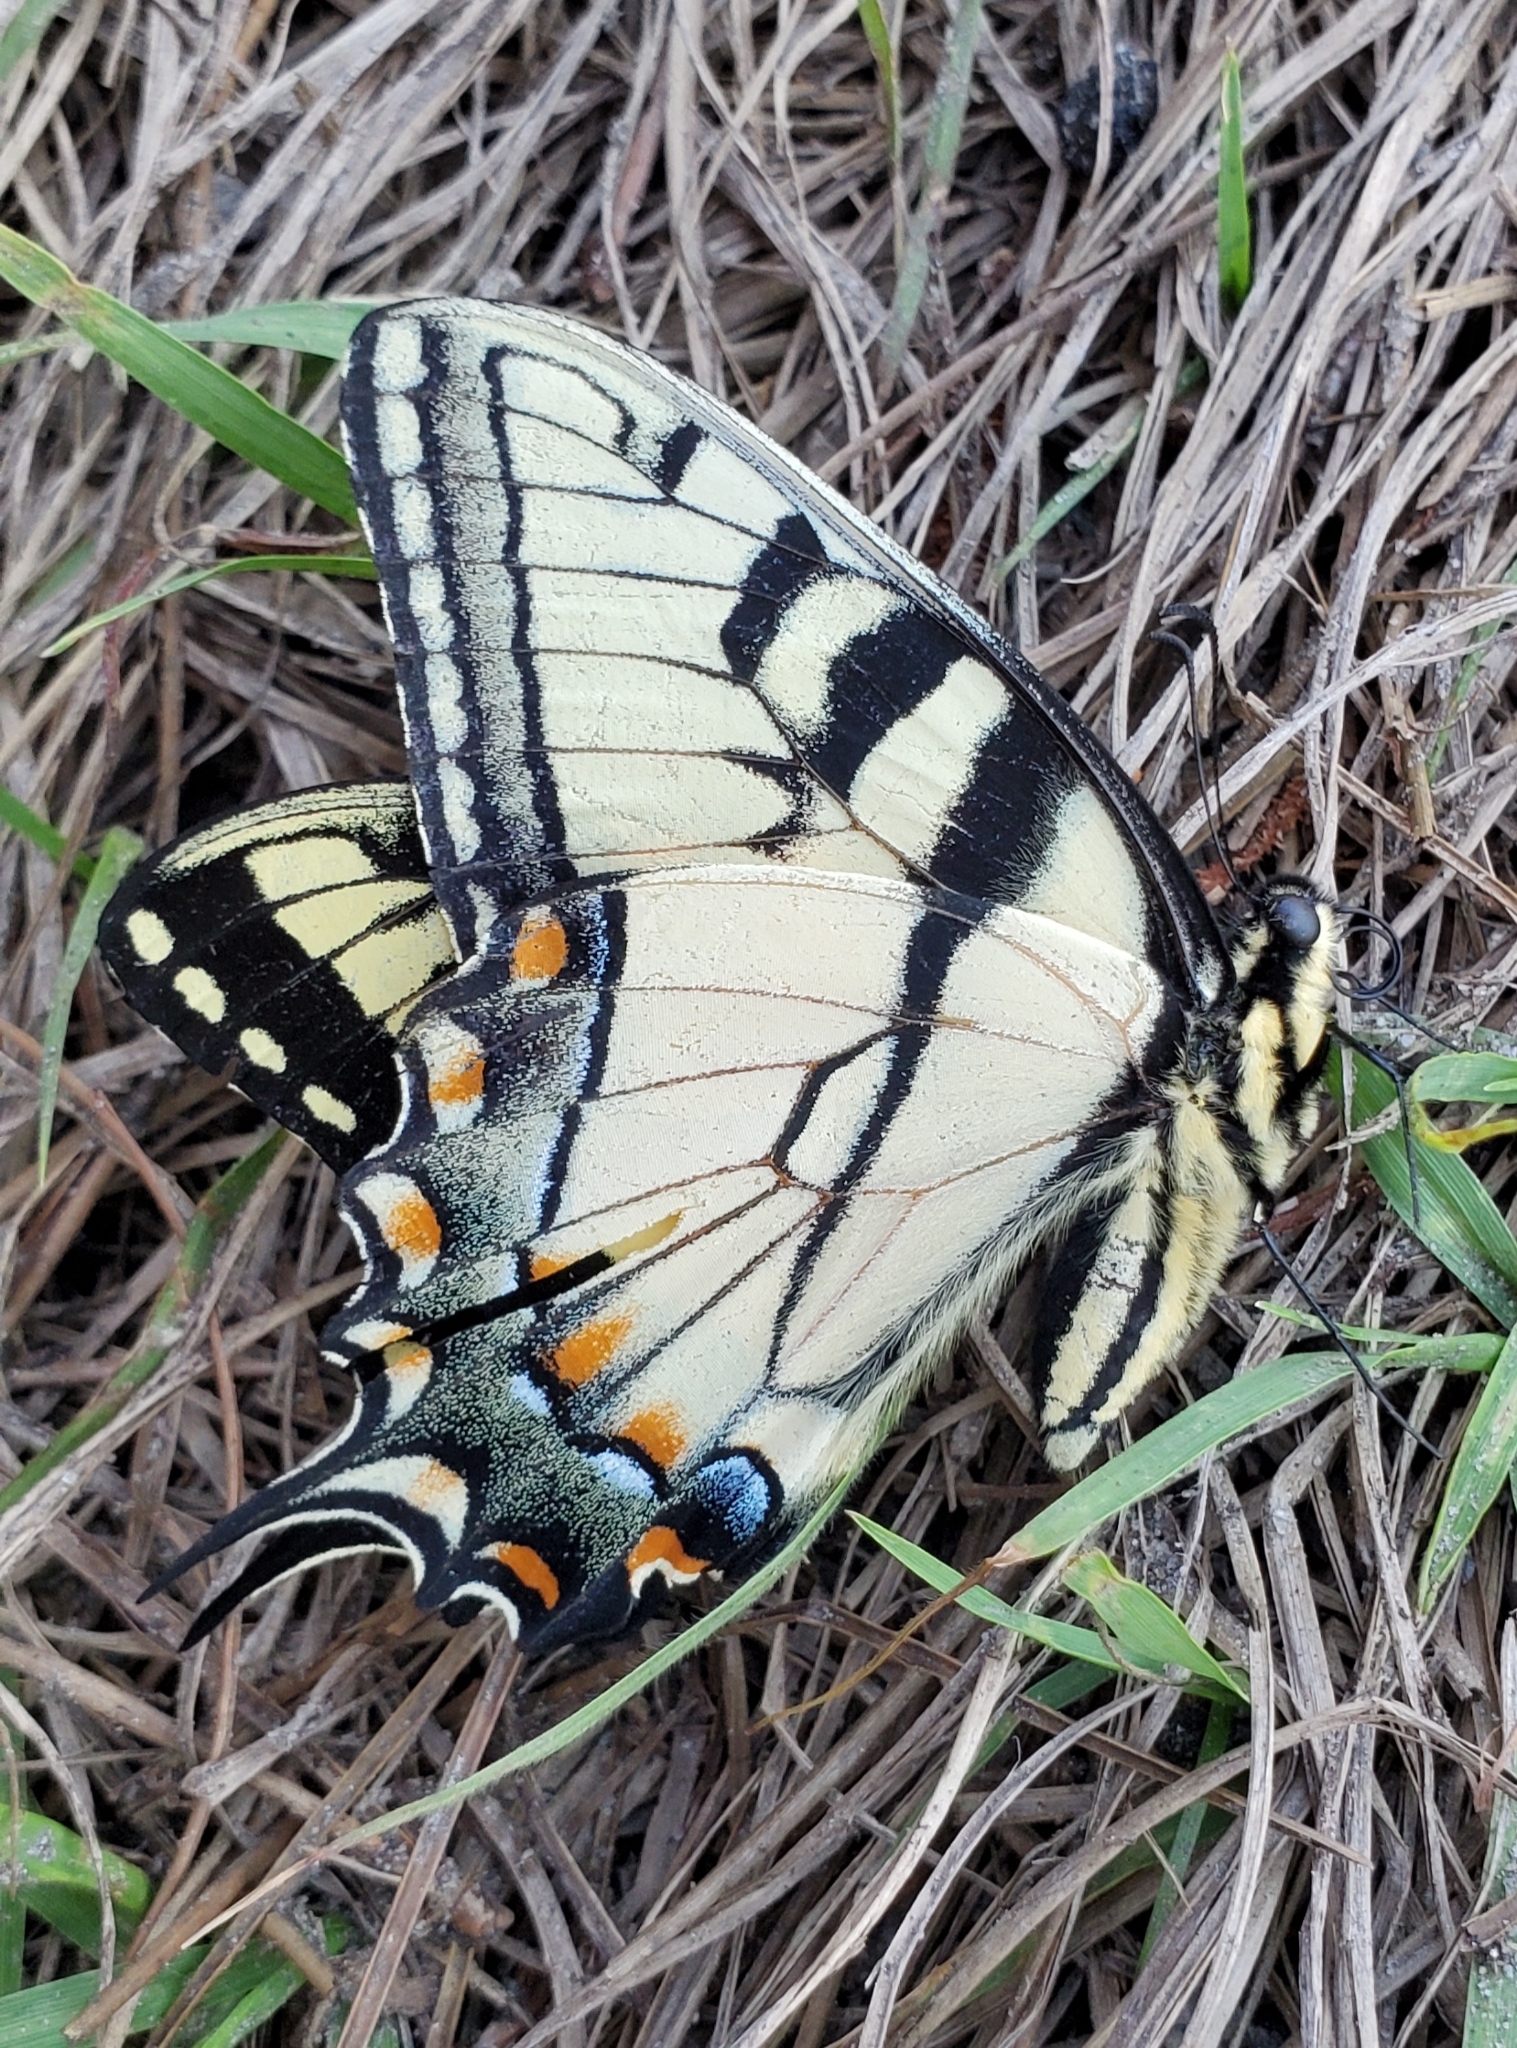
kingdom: Animalia
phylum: Arthropoda
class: Insecta
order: Lepidoptera
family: Papilionidae
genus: Papilio
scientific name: Papilio glaucus
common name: Tiger swallowtail
